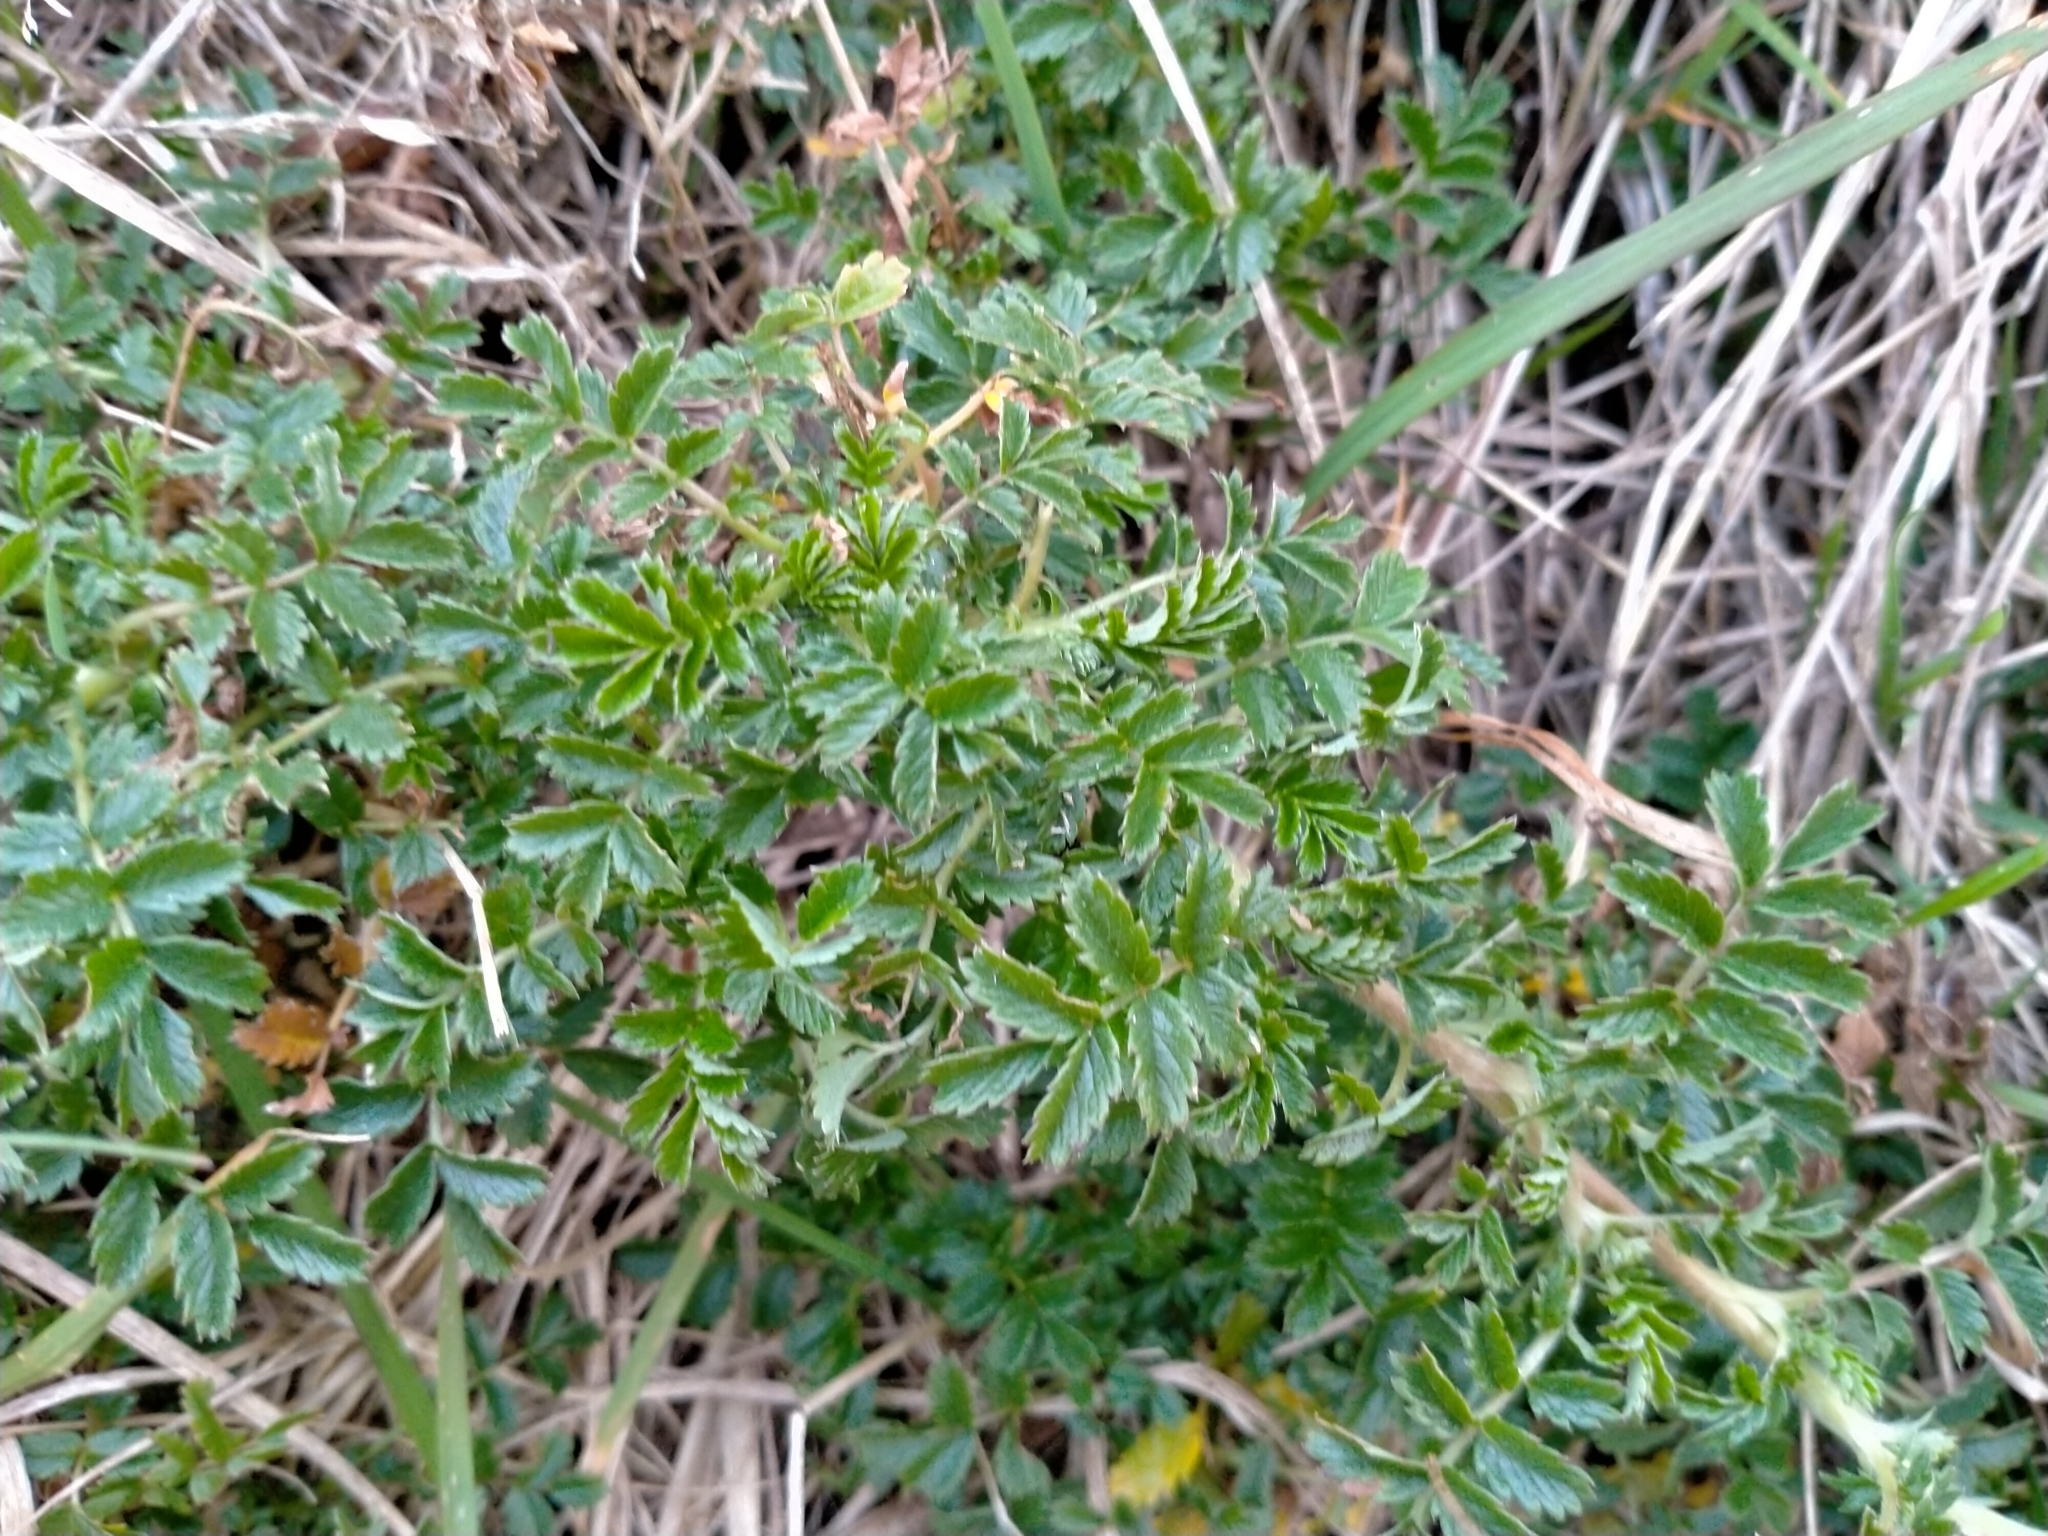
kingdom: Plantae
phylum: Tracheophyta
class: Magnoliopsida
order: Rosales
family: Rosaceae
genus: Acaena
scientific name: Acaena novae-zelandiae
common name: Pirri-pirri-bur
